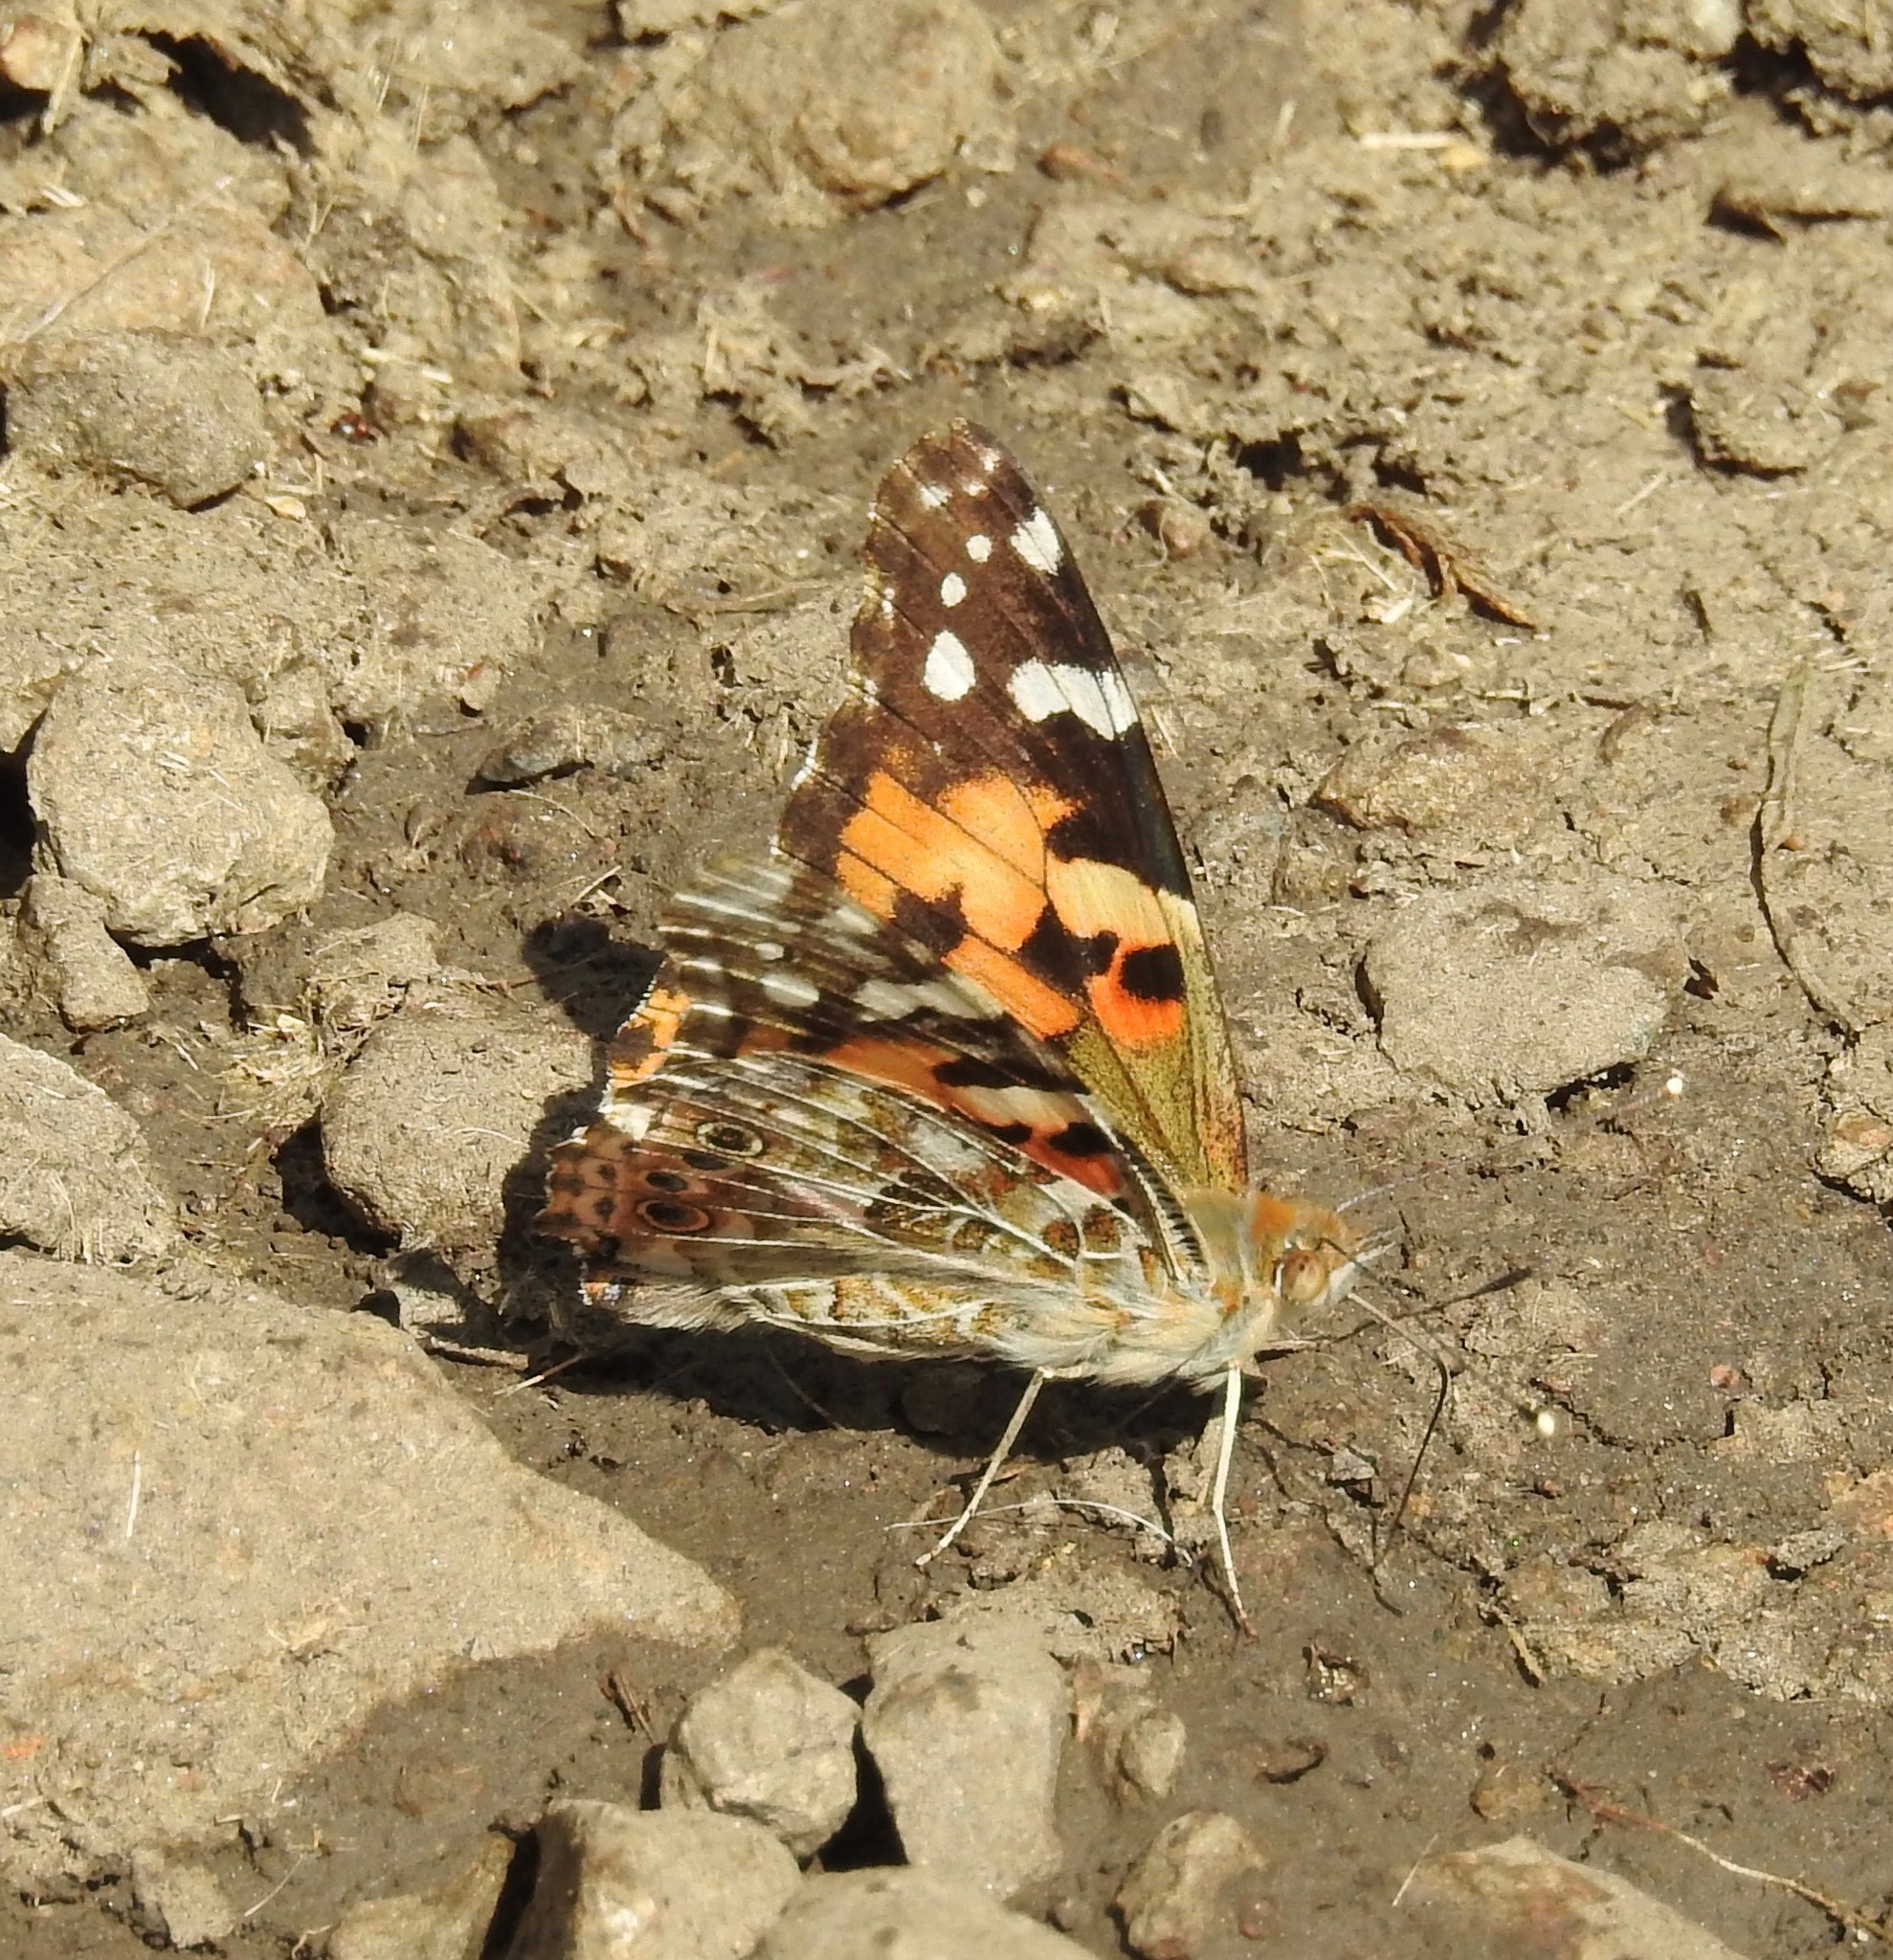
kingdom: Animalia
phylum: Arthropoda
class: Insecta
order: Lepidoptera
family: Nymphalidae
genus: Vanessa
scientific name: Vanessa cardui
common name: Painted lady
